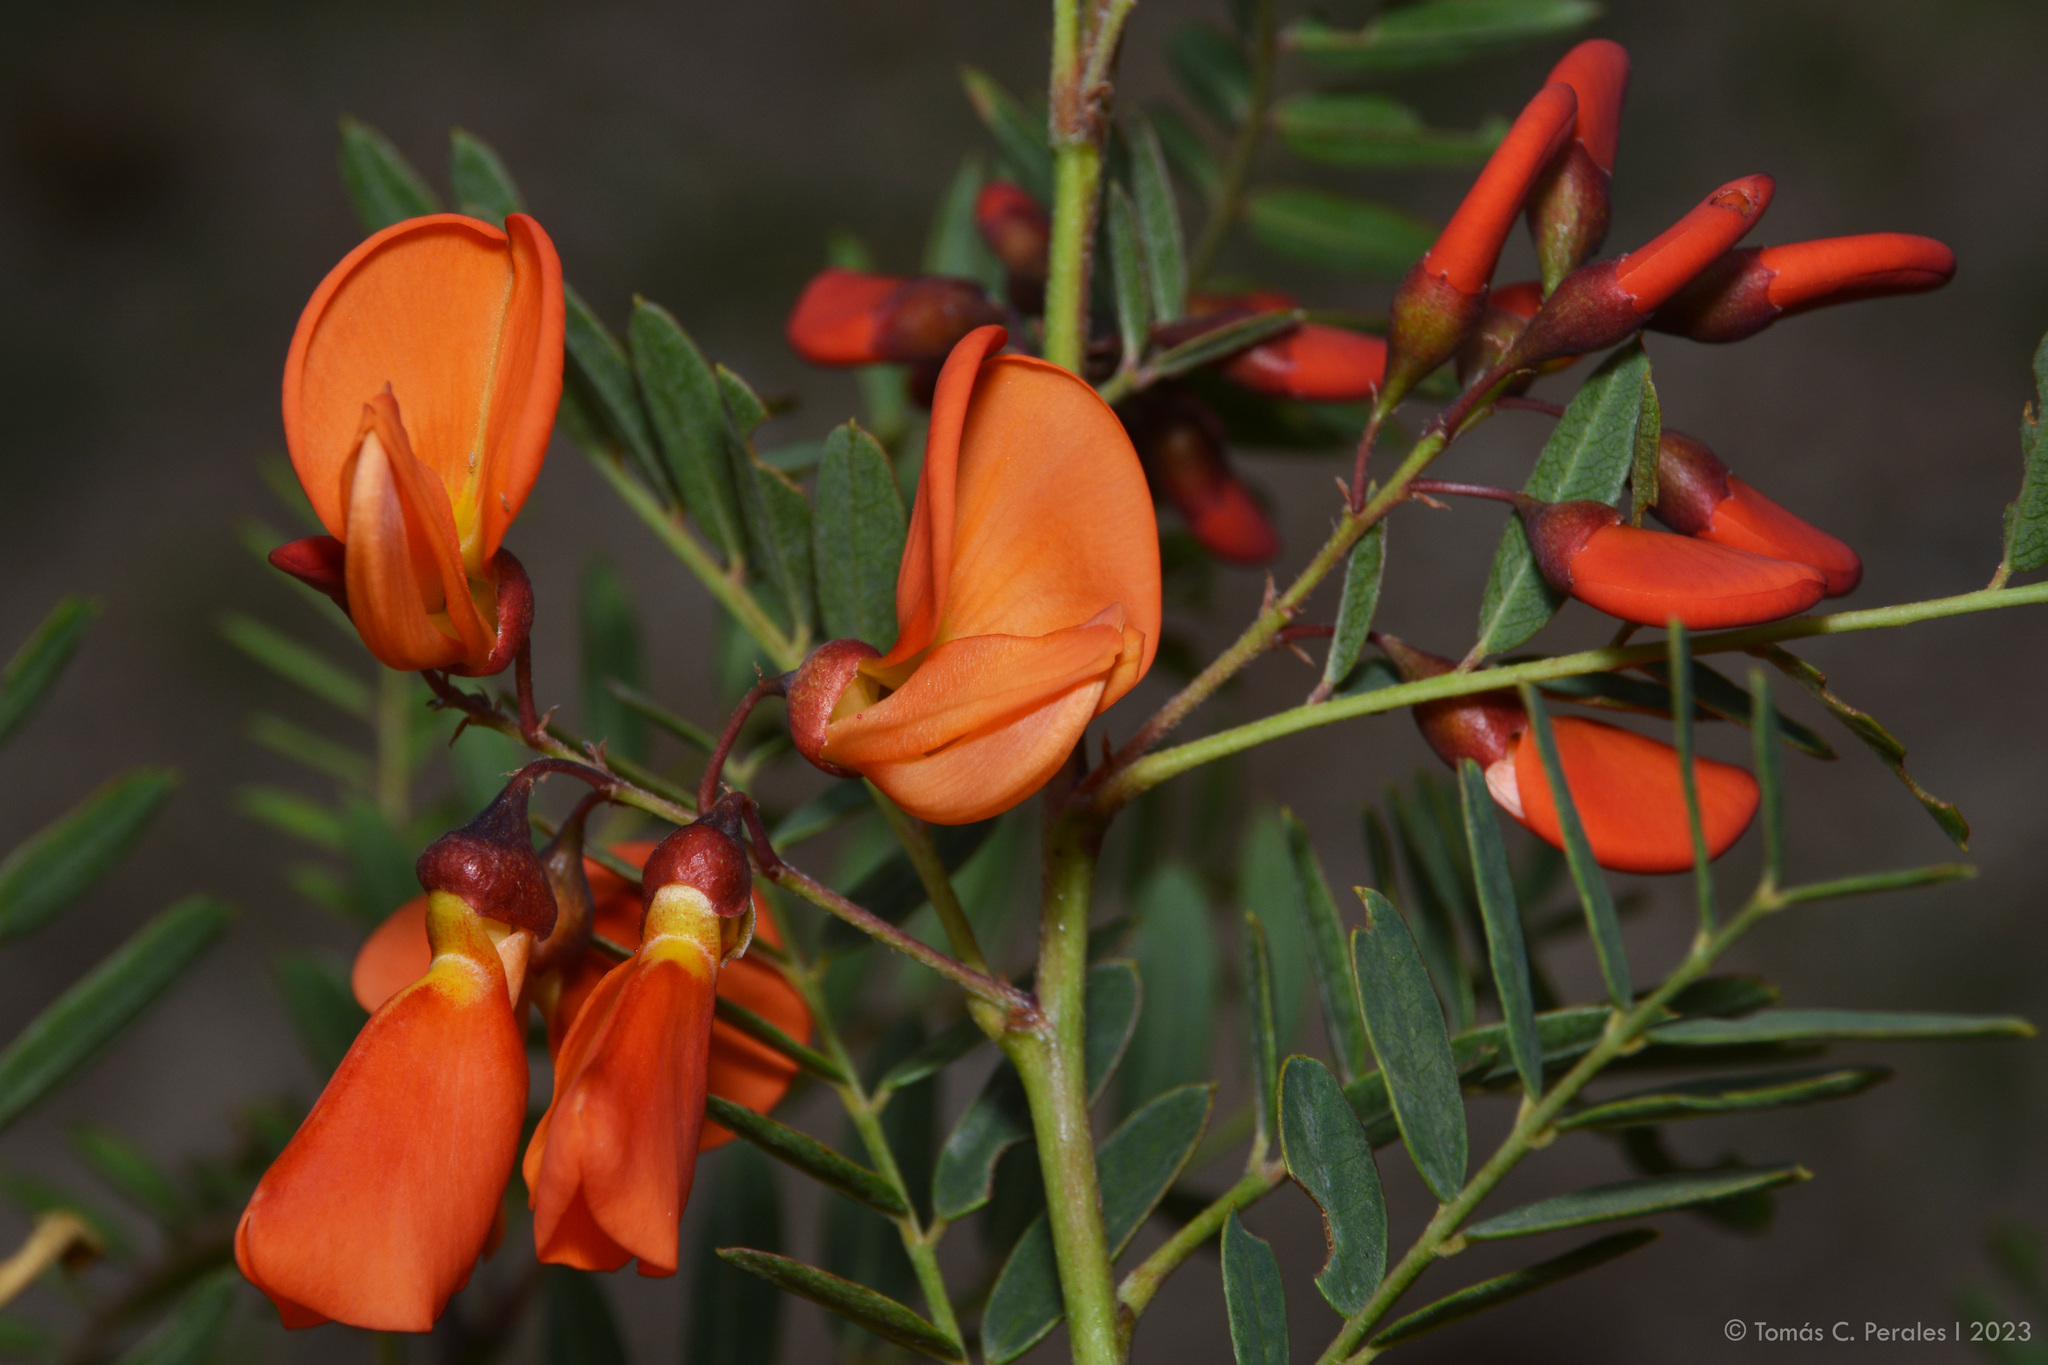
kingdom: Plantae
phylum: Tracheophyta
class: Magnoliopsida
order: Fabales
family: Fabaceae
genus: Sesbania
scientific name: Sesbania punicea
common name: Rattlebox
